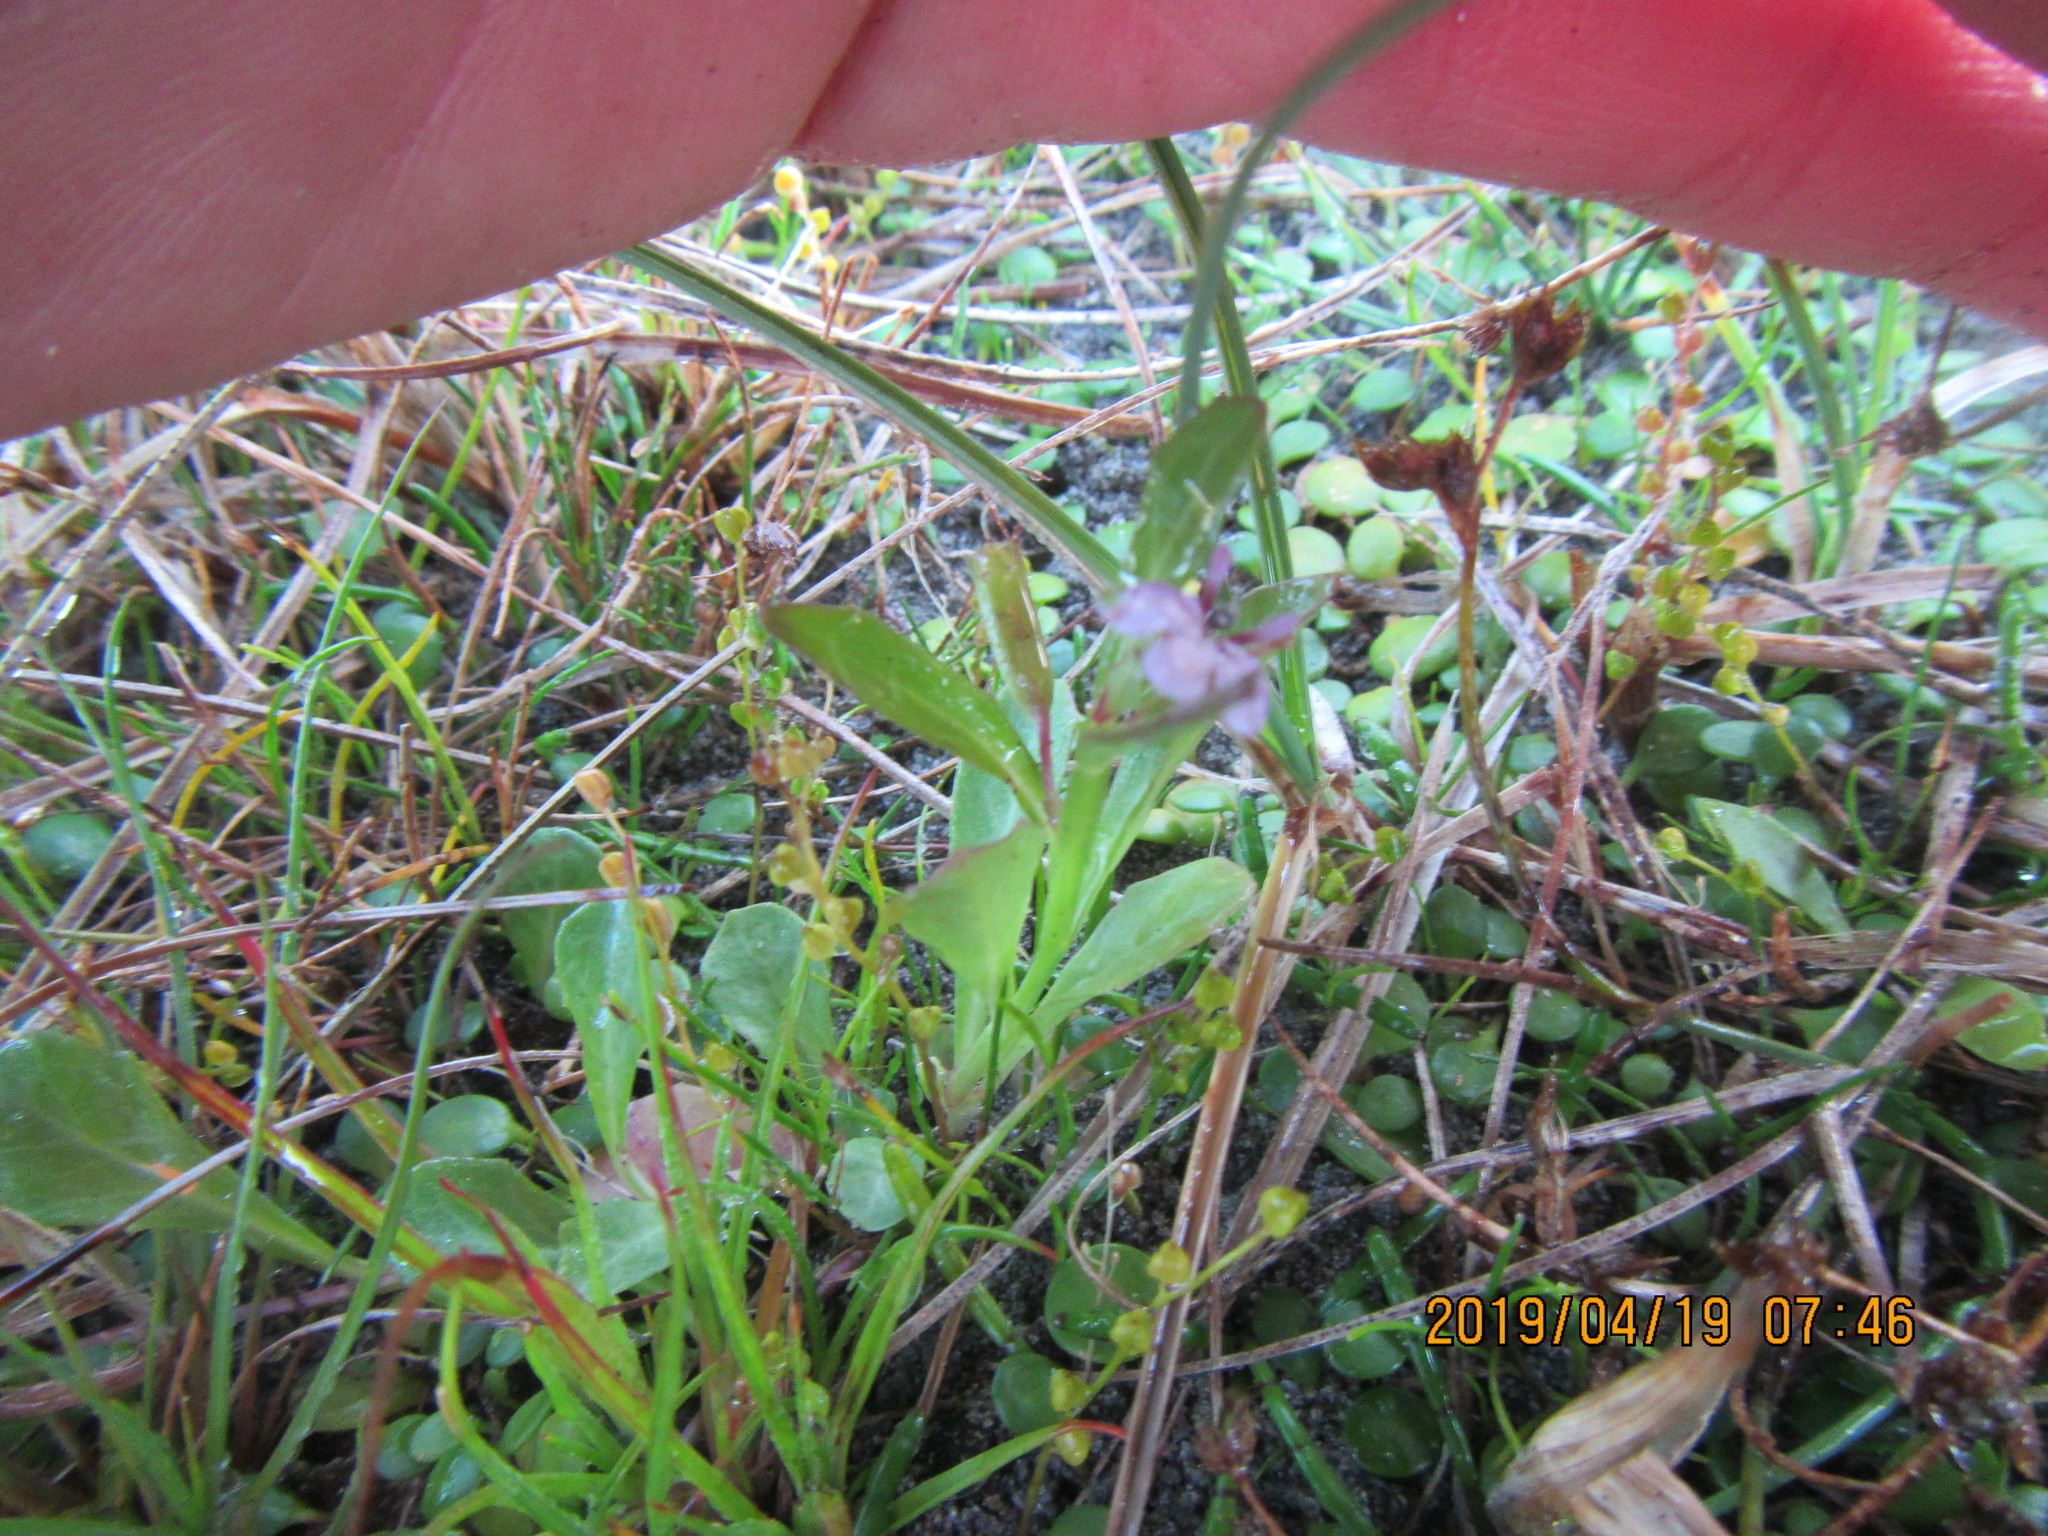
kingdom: Plantae
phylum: Tracheophyta
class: Magnoliopsida
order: Asterales
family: Campanulaceae
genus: Lobelia
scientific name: Lobelia anceps
